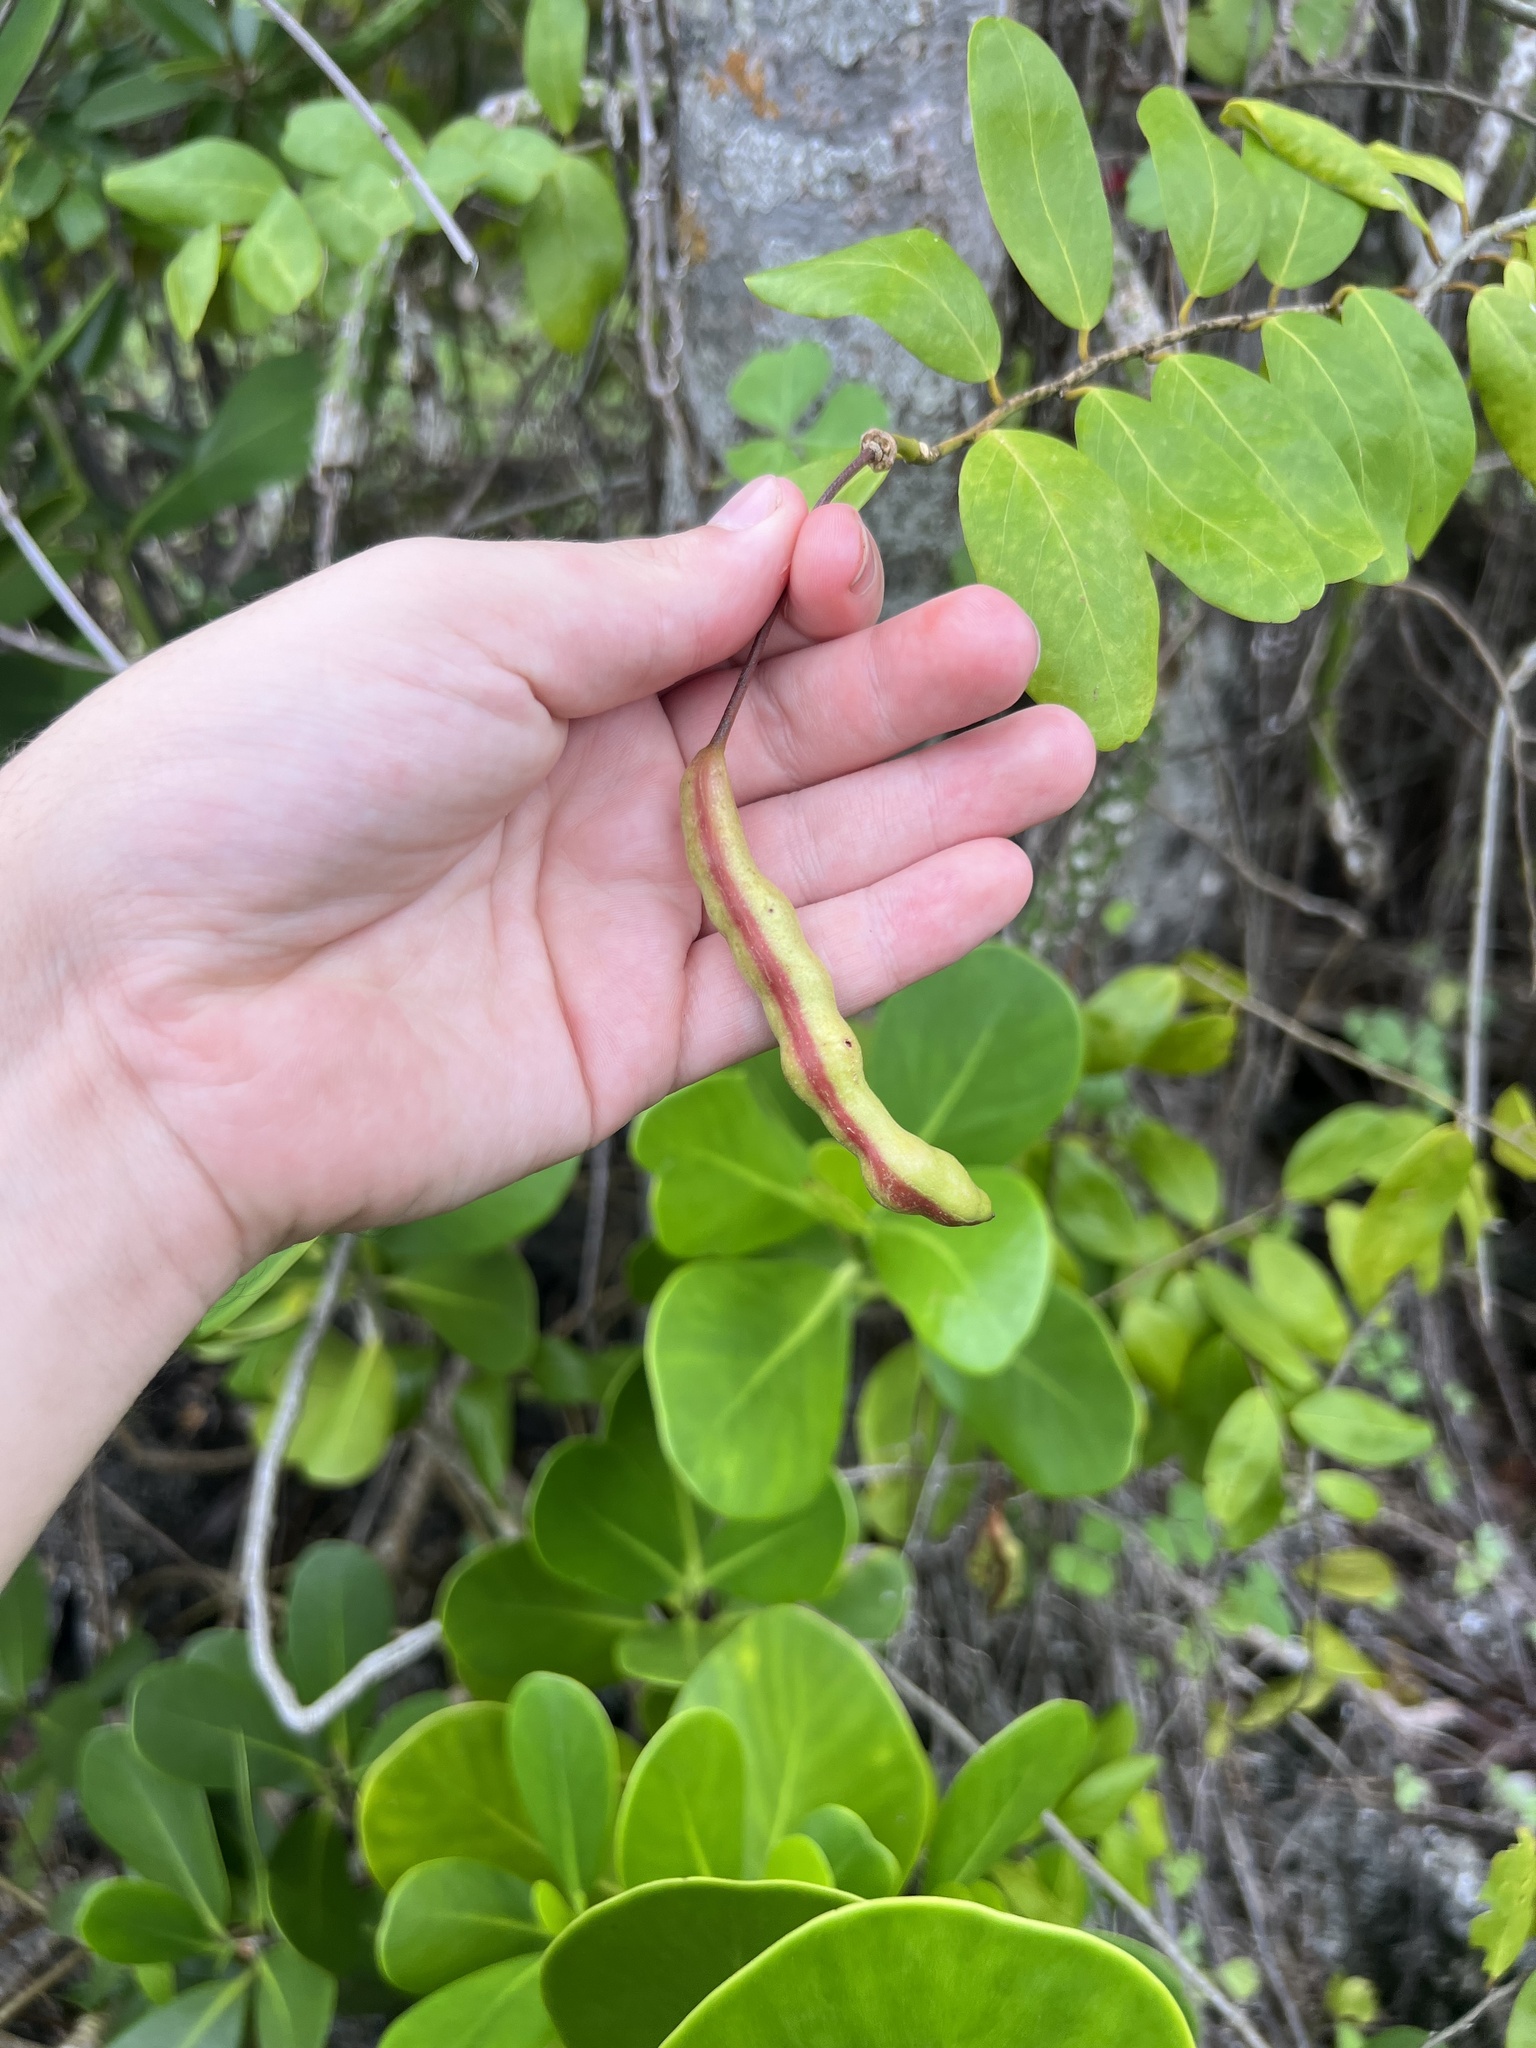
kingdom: Plantae
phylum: Tracheophyta
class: Magnoliopsida
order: Brassicales
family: Capparaceae
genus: Cynophalla
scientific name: Cynophalla flexuosa
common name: Capertree
